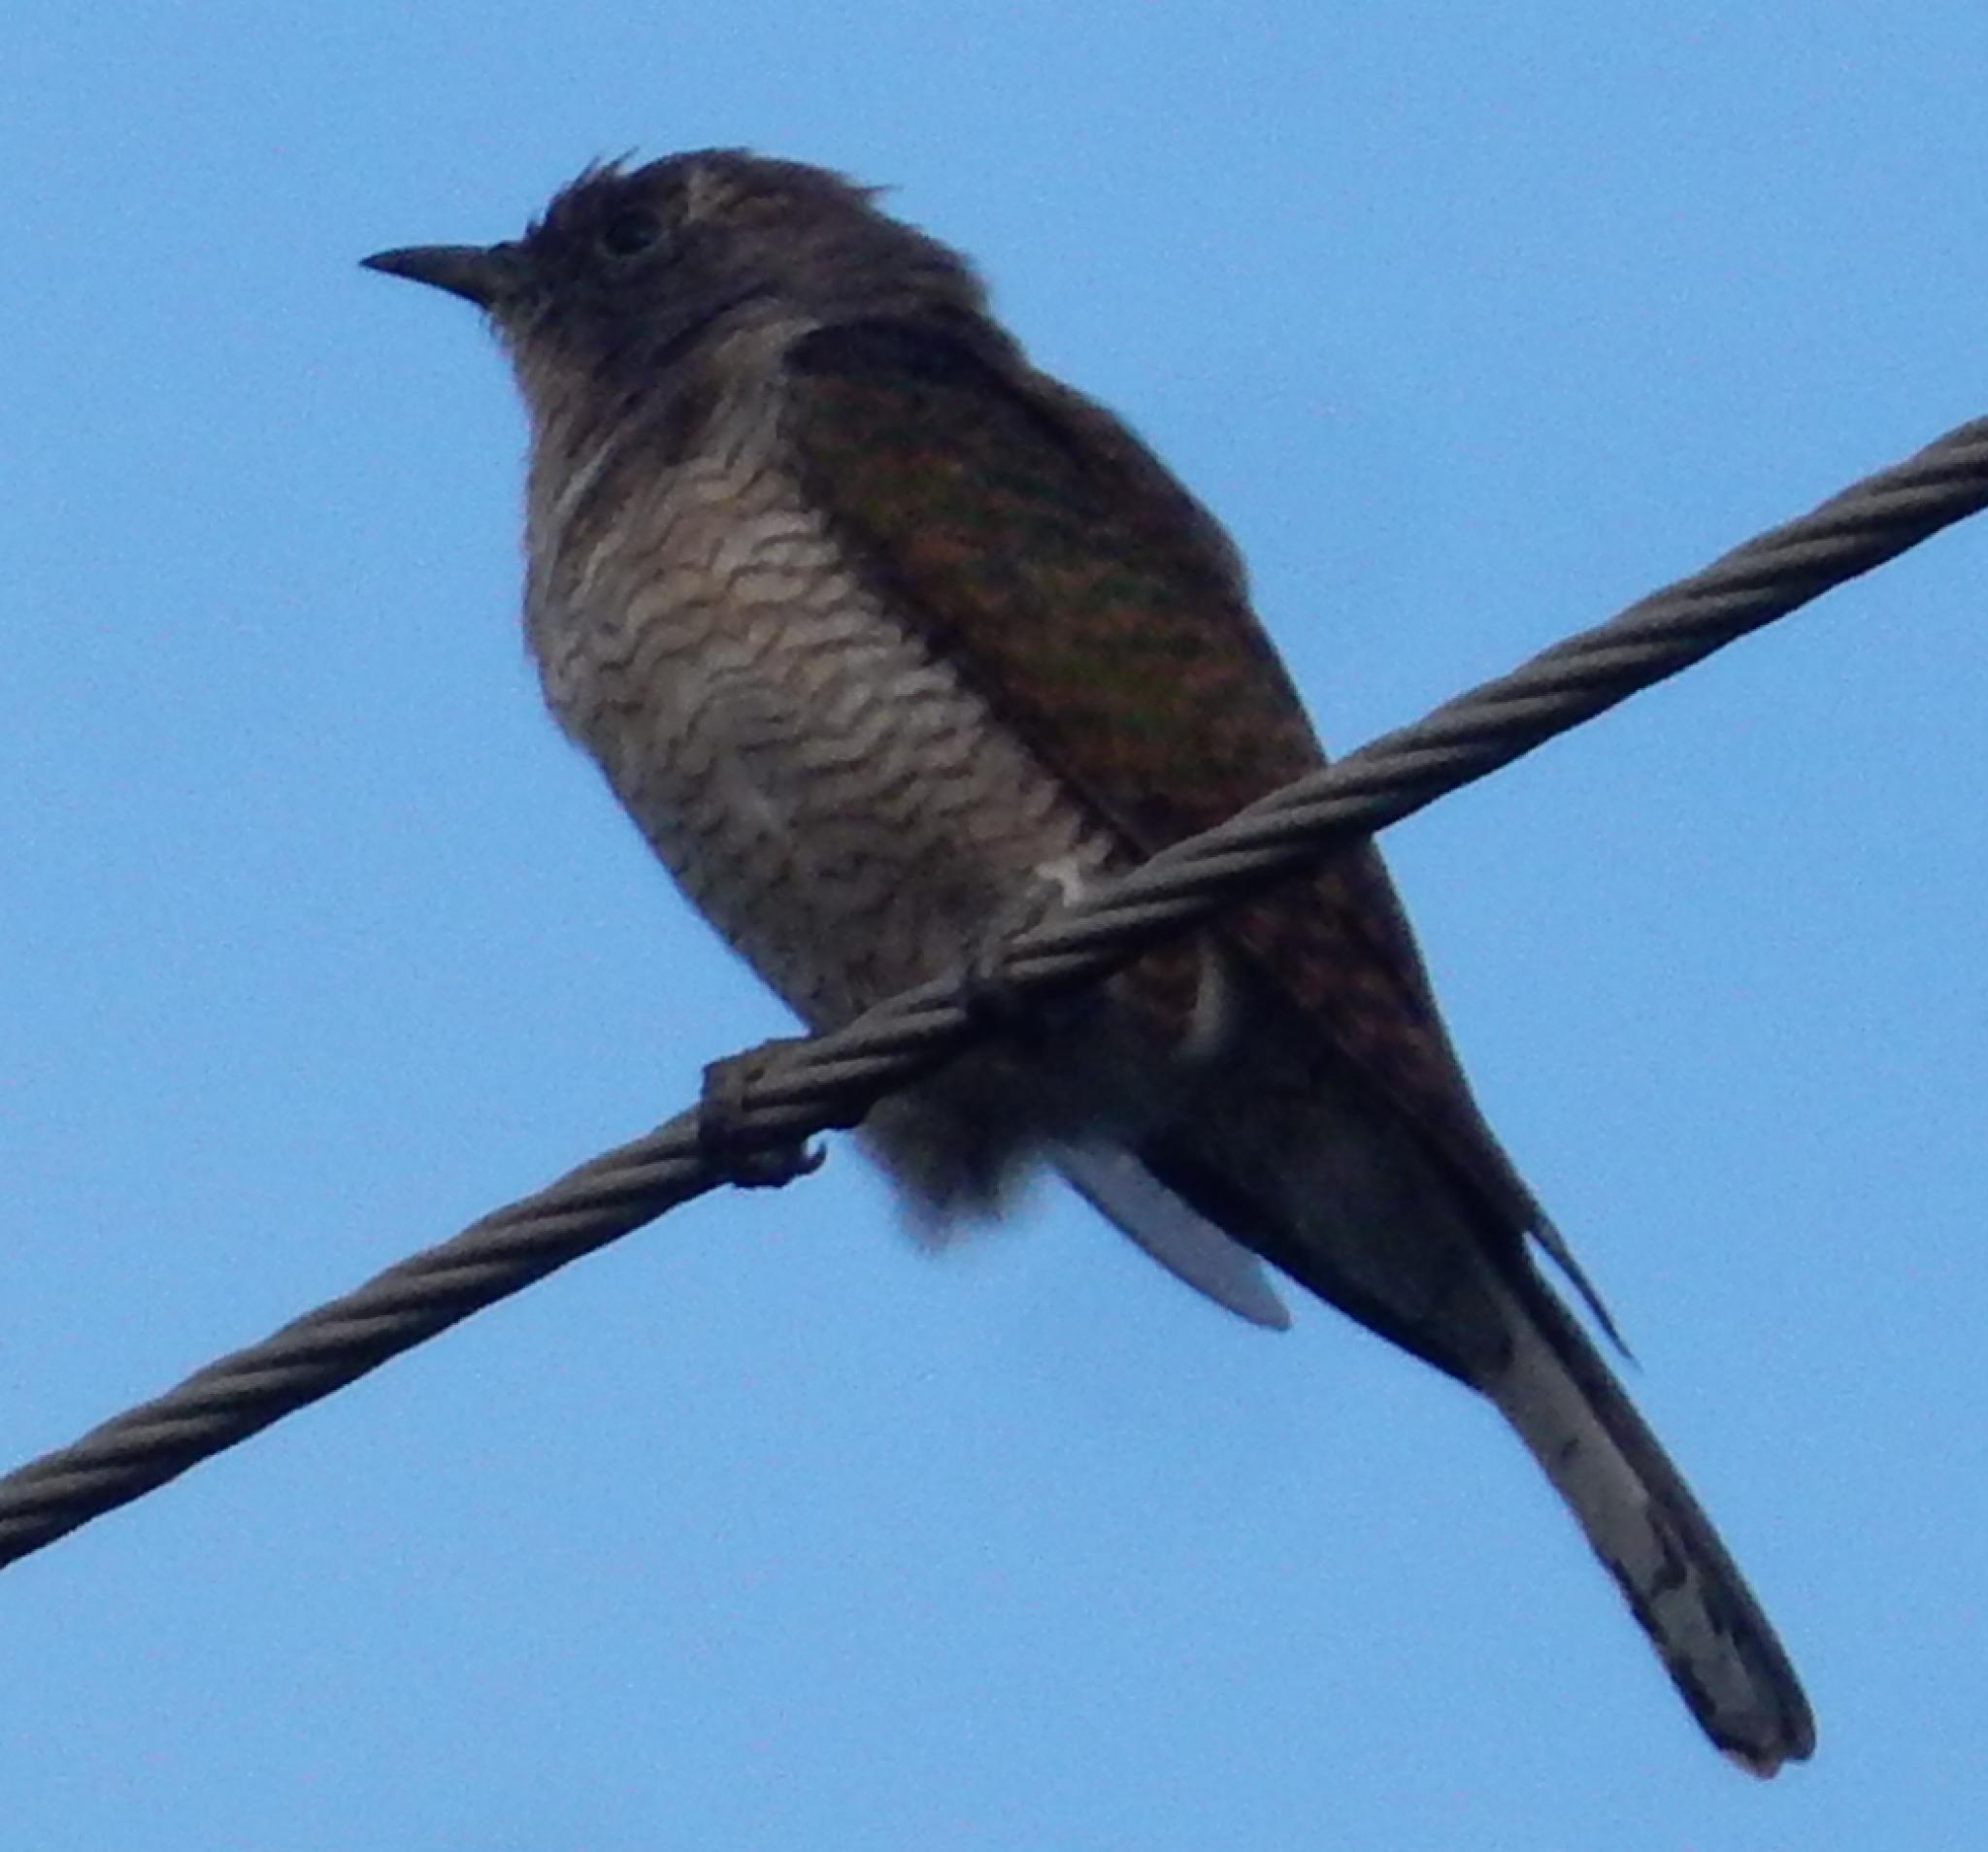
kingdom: Animalia
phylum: Chordata
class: Aves
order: Cuculiformes
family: Cuculidae
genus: Chrysococcyx
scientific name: Chrysococcyx klaas
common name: Klaas's cuckoo
